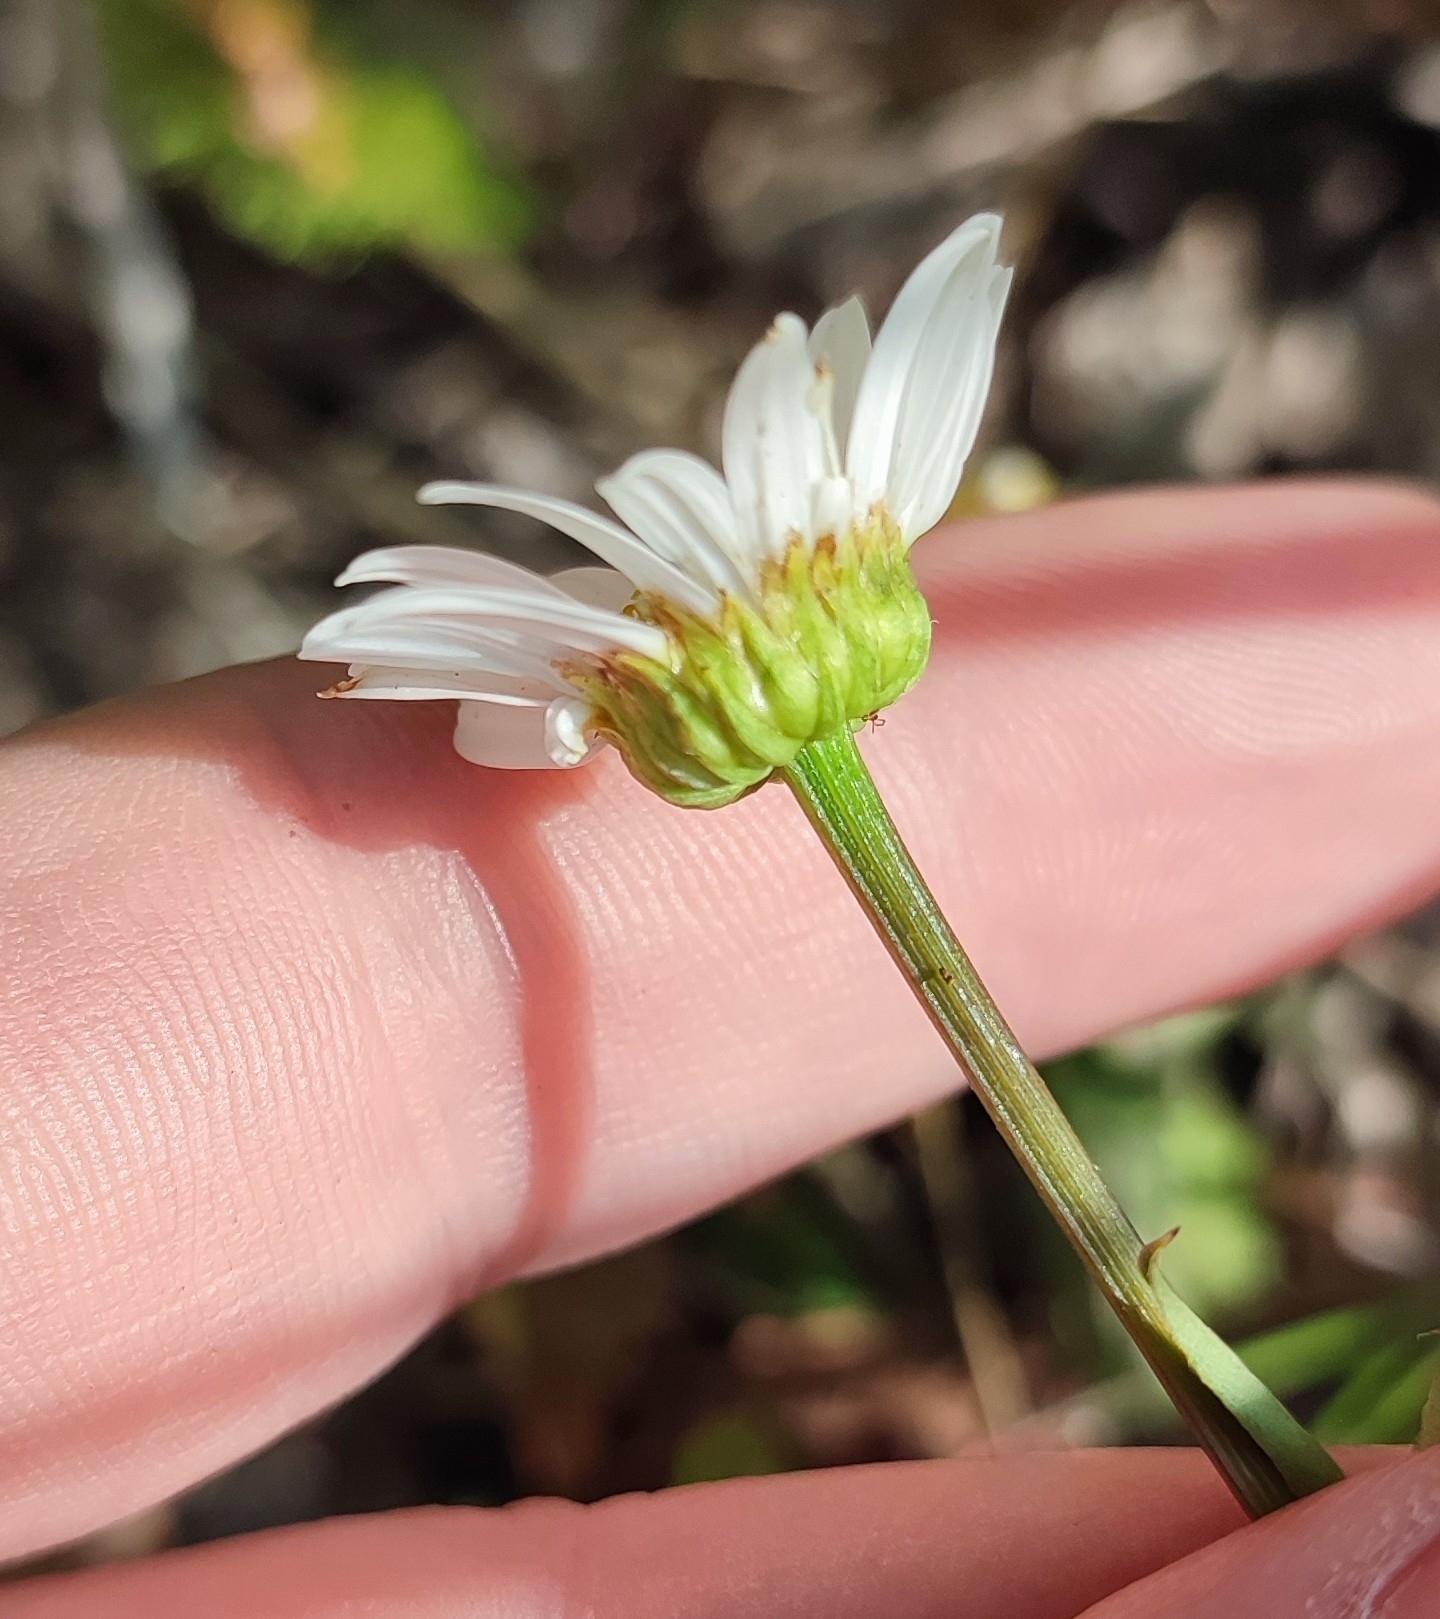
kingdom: Plantae
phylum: Tracheophyta
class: Magnoliopsida
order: Asterales
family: Asteraceae
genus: Leucanthemum
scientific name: Leucanthemum ircutianum
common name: Daisy
